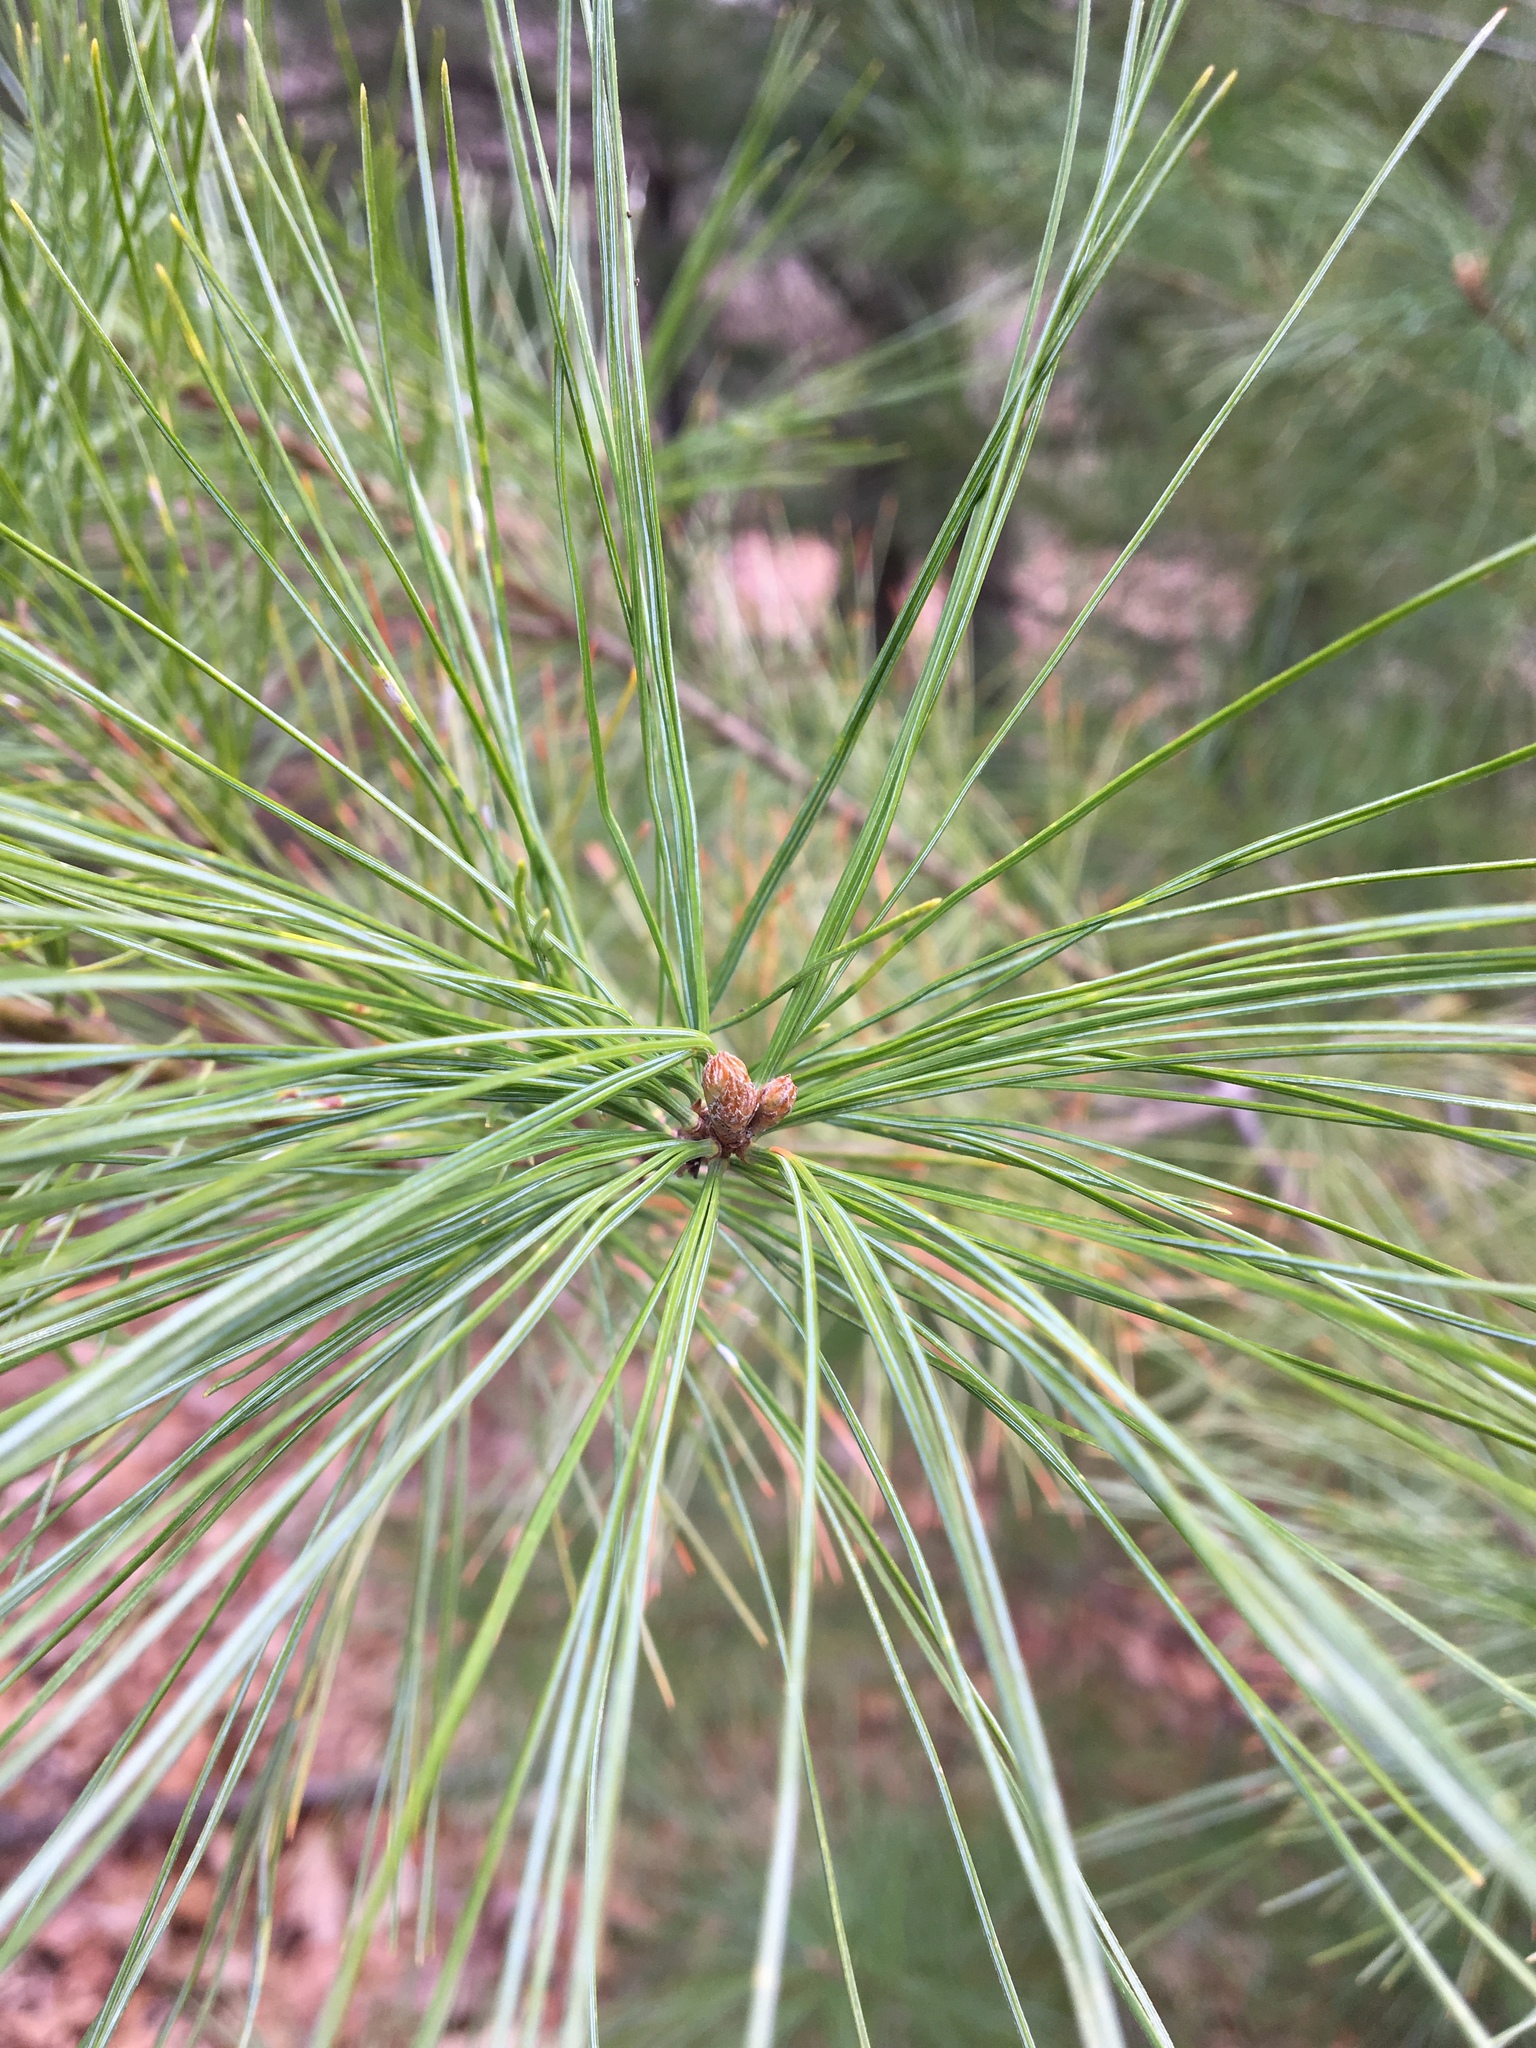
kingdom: Plantae
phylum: Tracheophyta
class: Pinopsida
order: Pinales
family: Pinaceae
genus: Pinus
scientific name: Pinus strobus
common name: Weymouth pine
